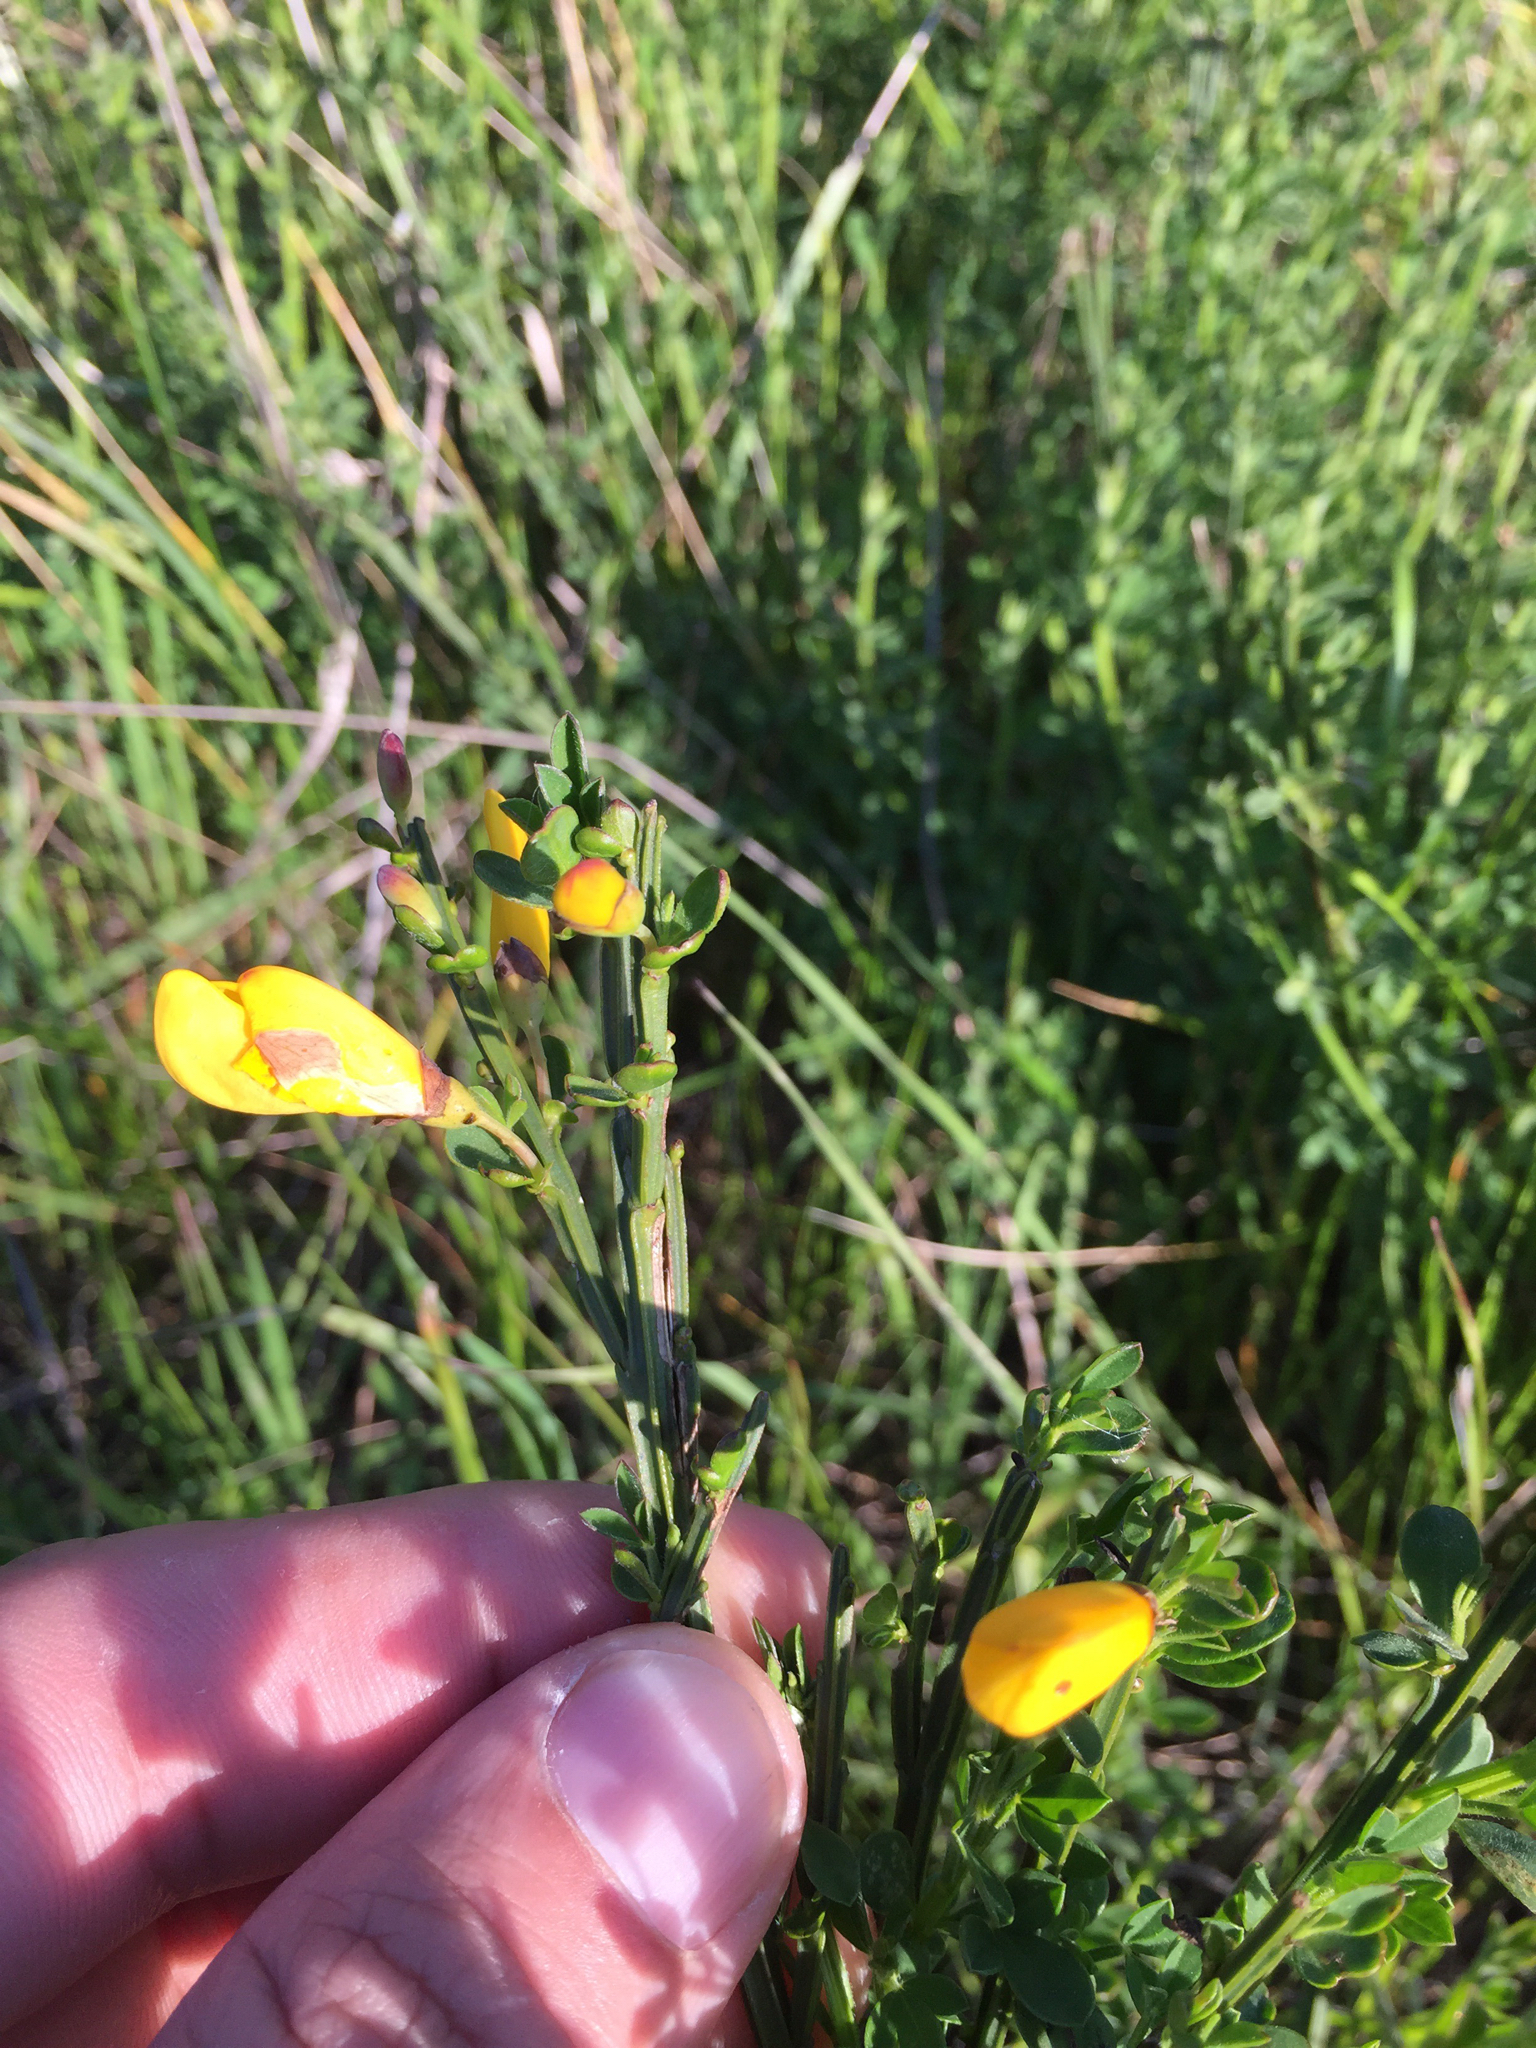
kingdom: Plantae
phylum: Tracheophyta
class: Magnoliopsida
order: Fabales
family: Fabaceae
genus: Cytisus
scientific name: Cytisus scoparius
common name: Scotch broom
